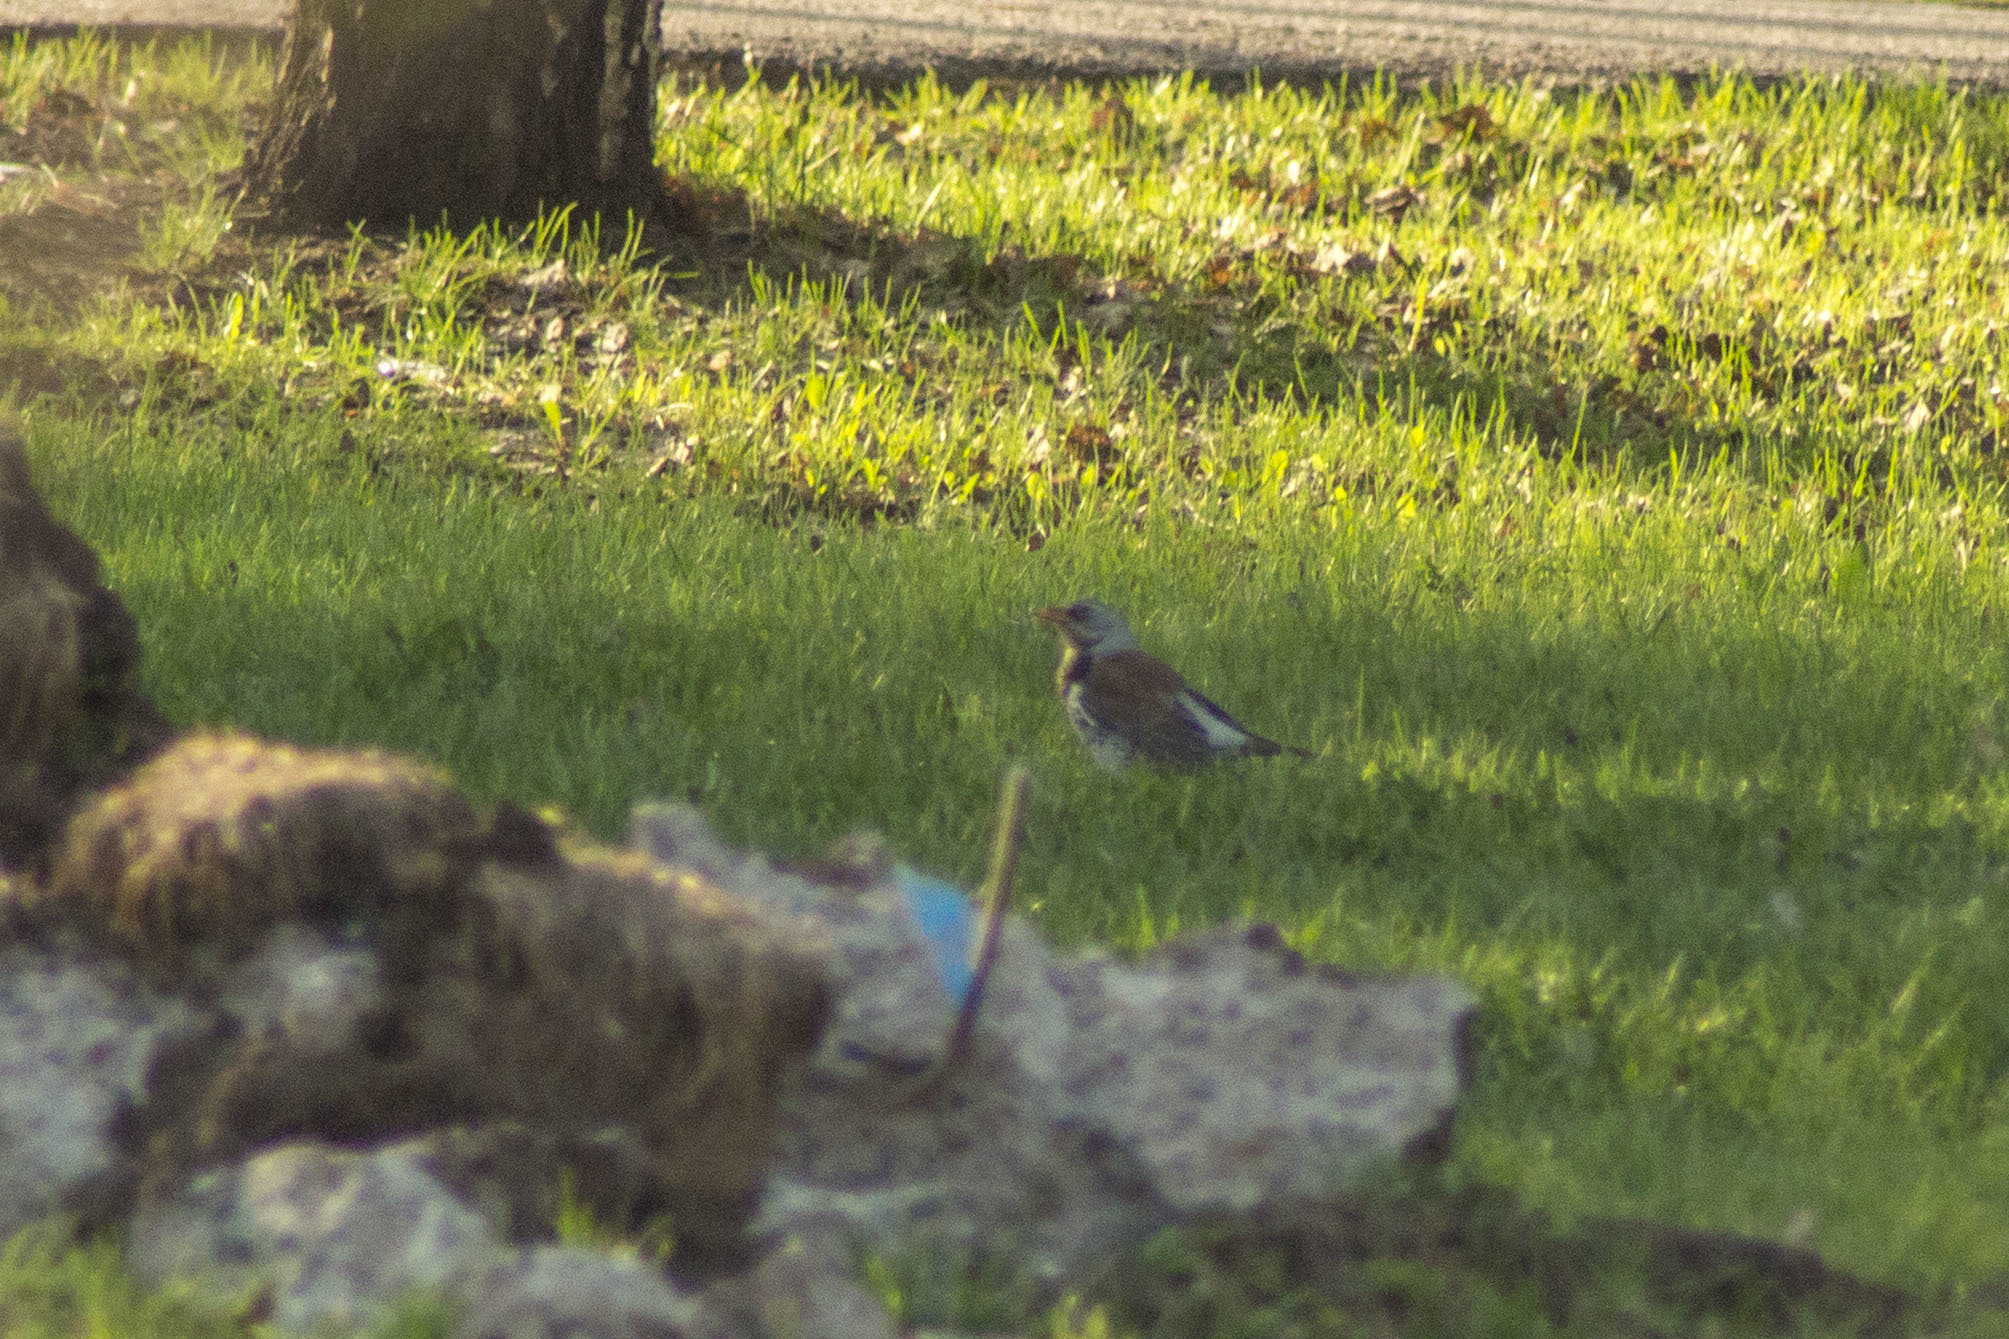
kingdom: Animalia
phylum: Chordata
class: Aves
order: Passeriformes
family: Turdidae
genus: Turdus
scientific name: Turdus pilaris
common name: Fieldfare
